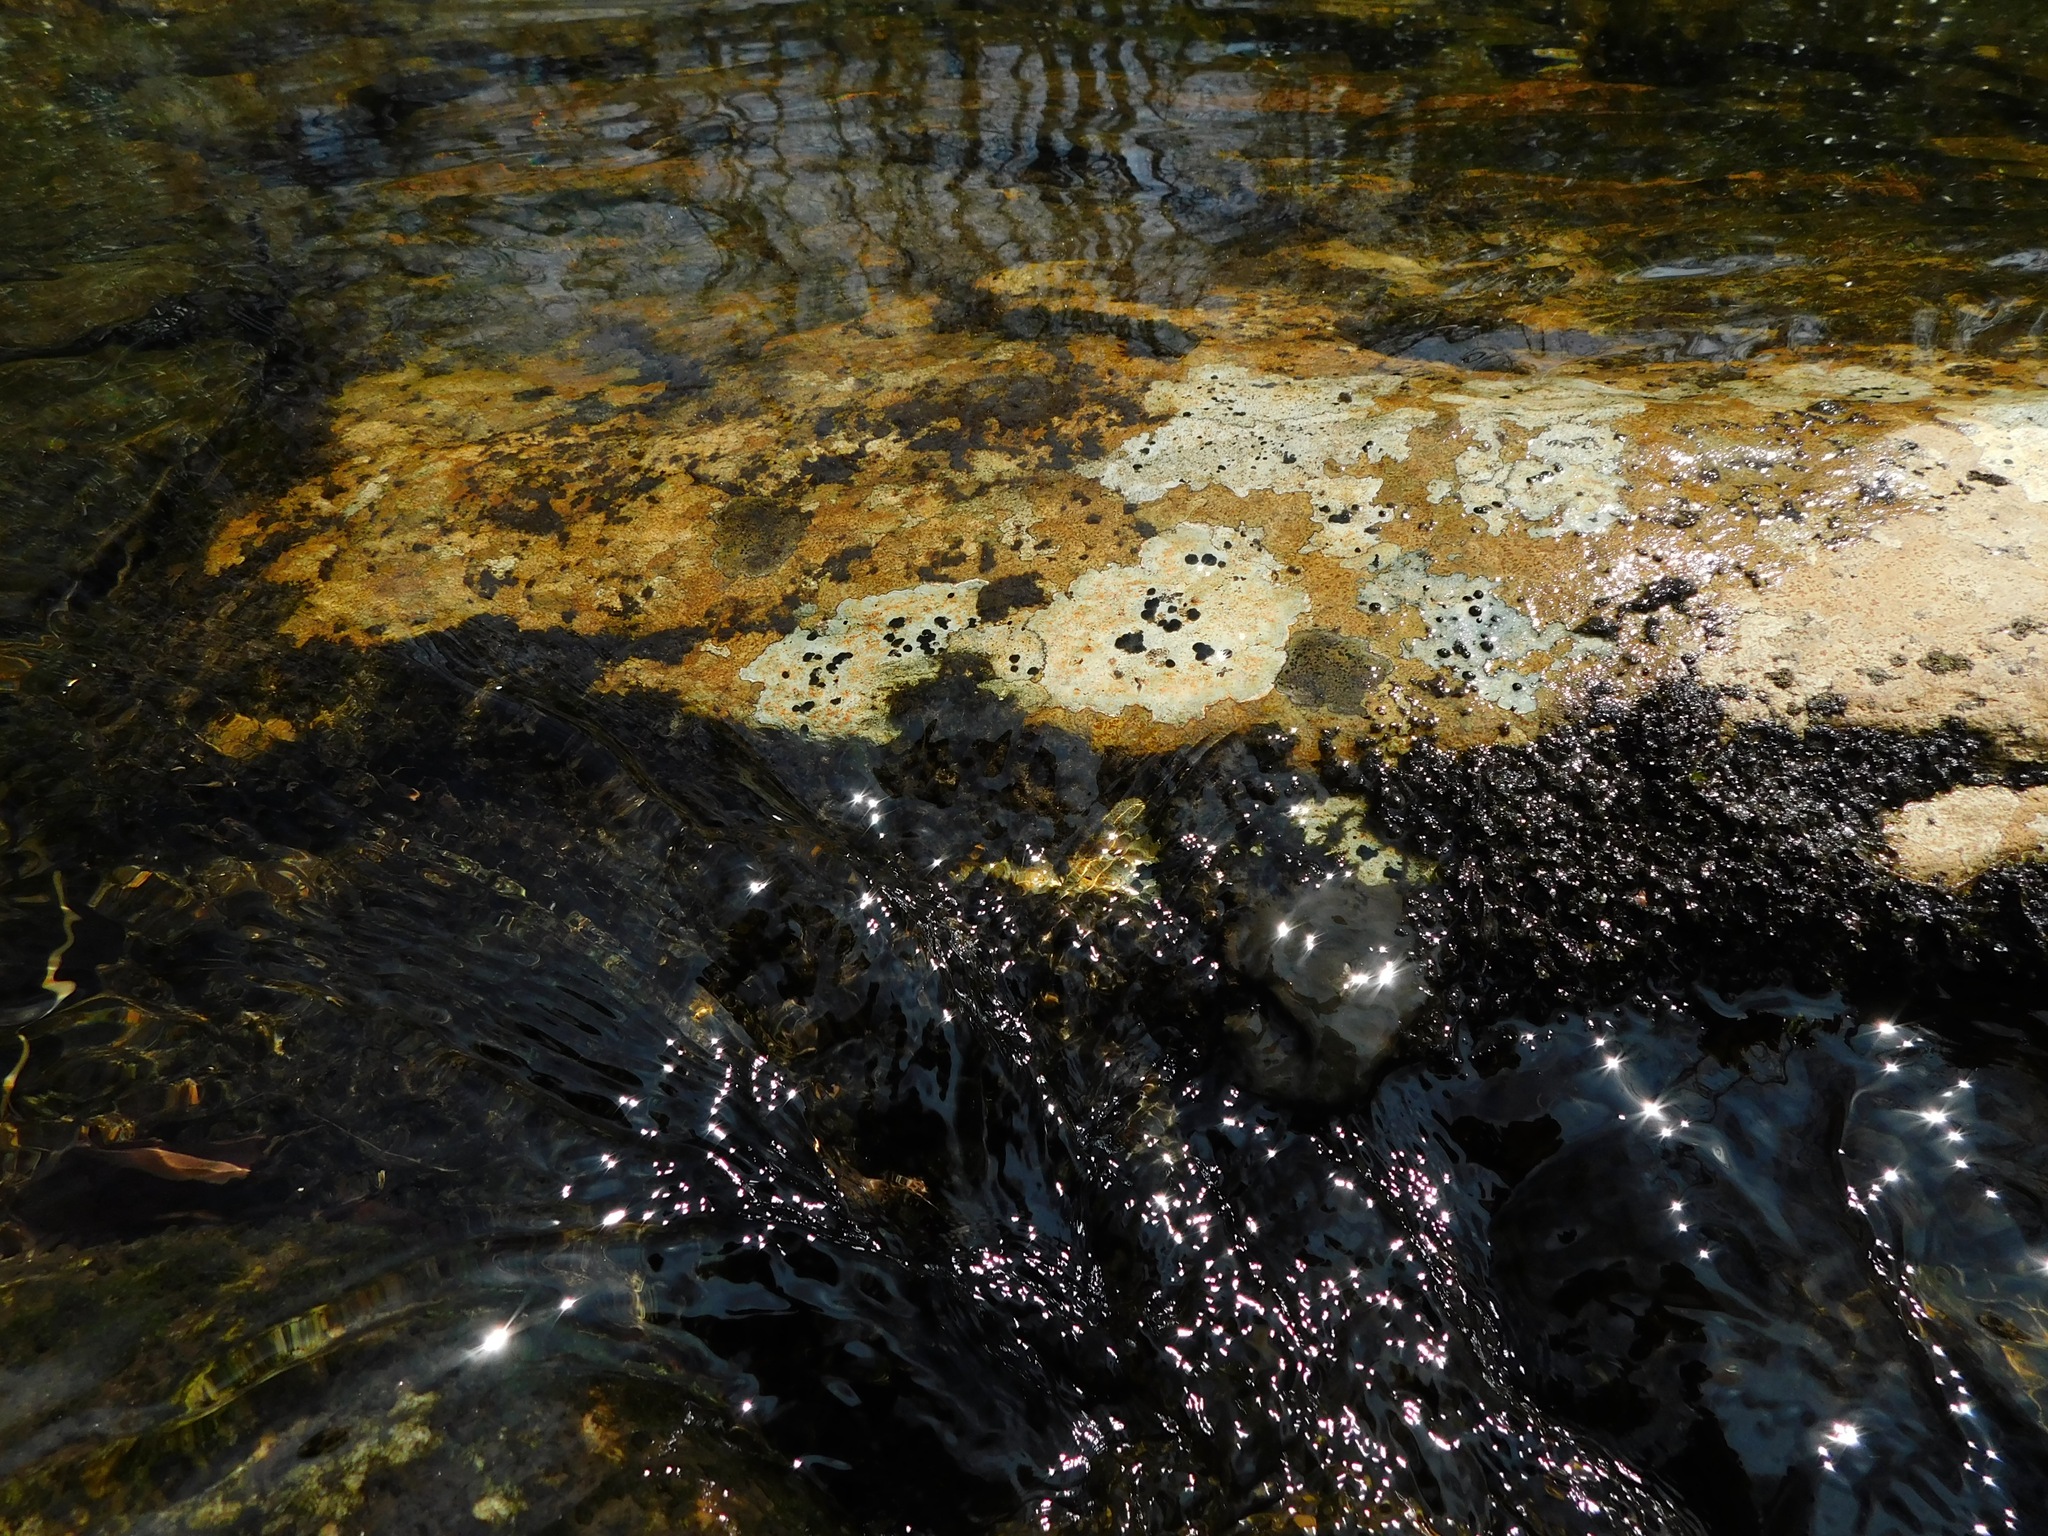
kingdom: Fungi
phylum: Ascomycota
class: Lecanoromycetes
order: Lecideales
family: Lecideaceae
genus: Porpidia
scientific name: Porpidia macrocarpa
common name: Common boulder lichen
